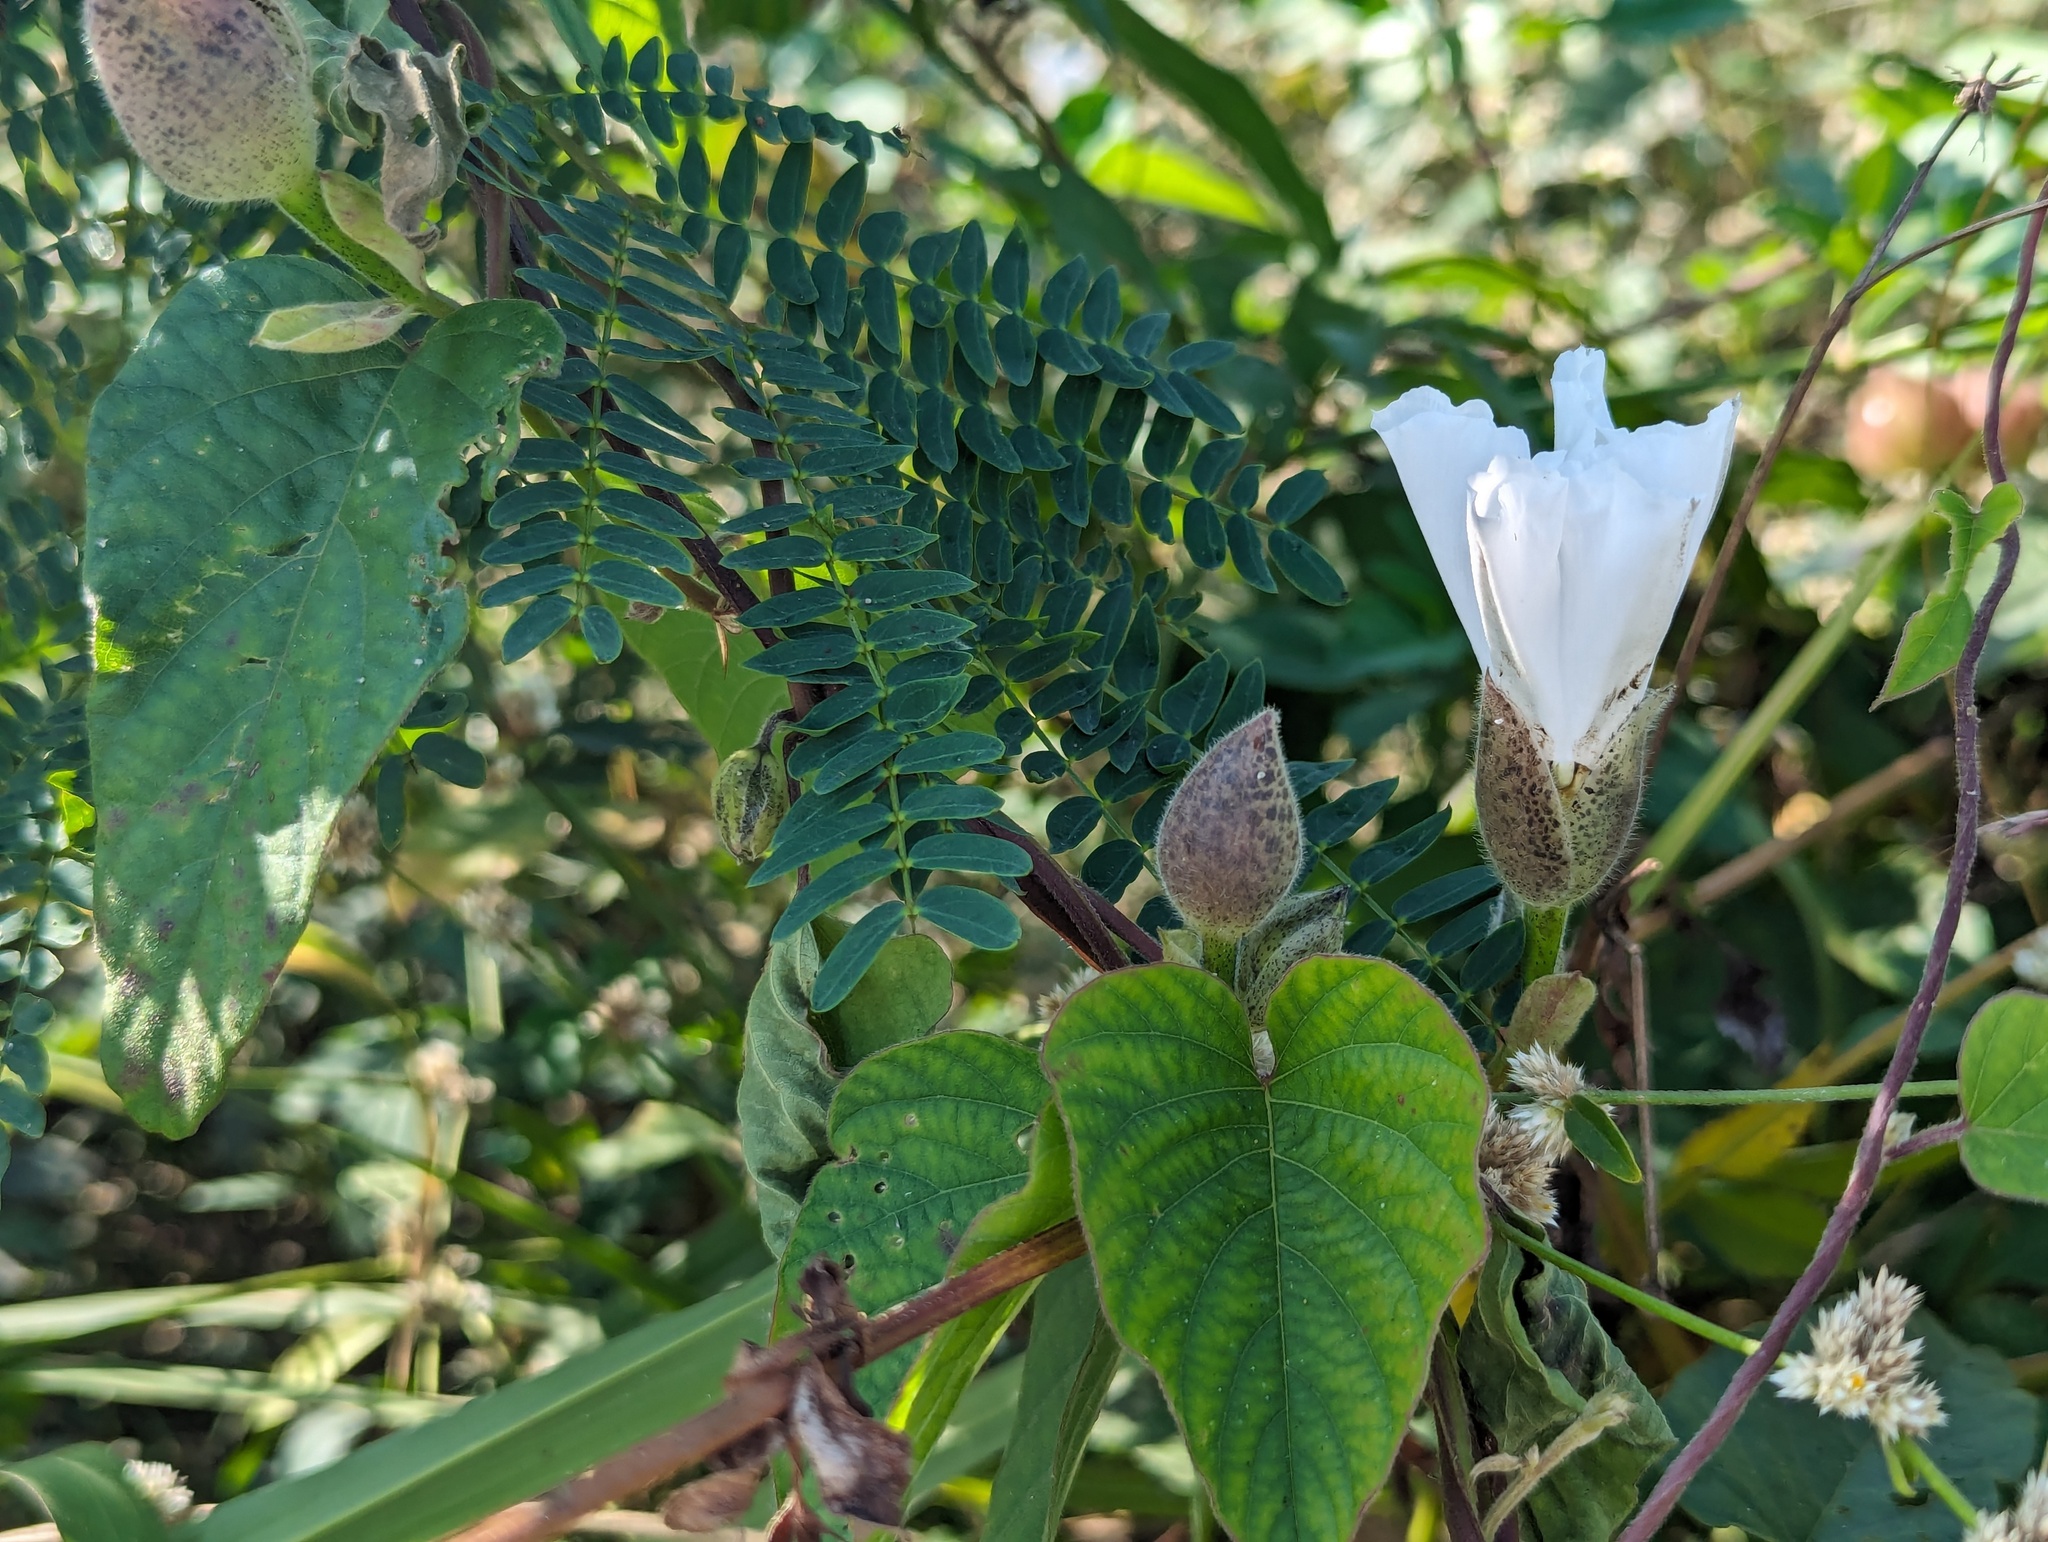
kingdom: Plantae
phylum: Tracheophyta
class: Magnoliopsida
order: Solanales
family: Convolvulaceae
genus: Operculina
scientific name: Operculina turpethum
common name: Transparent wood-rose
